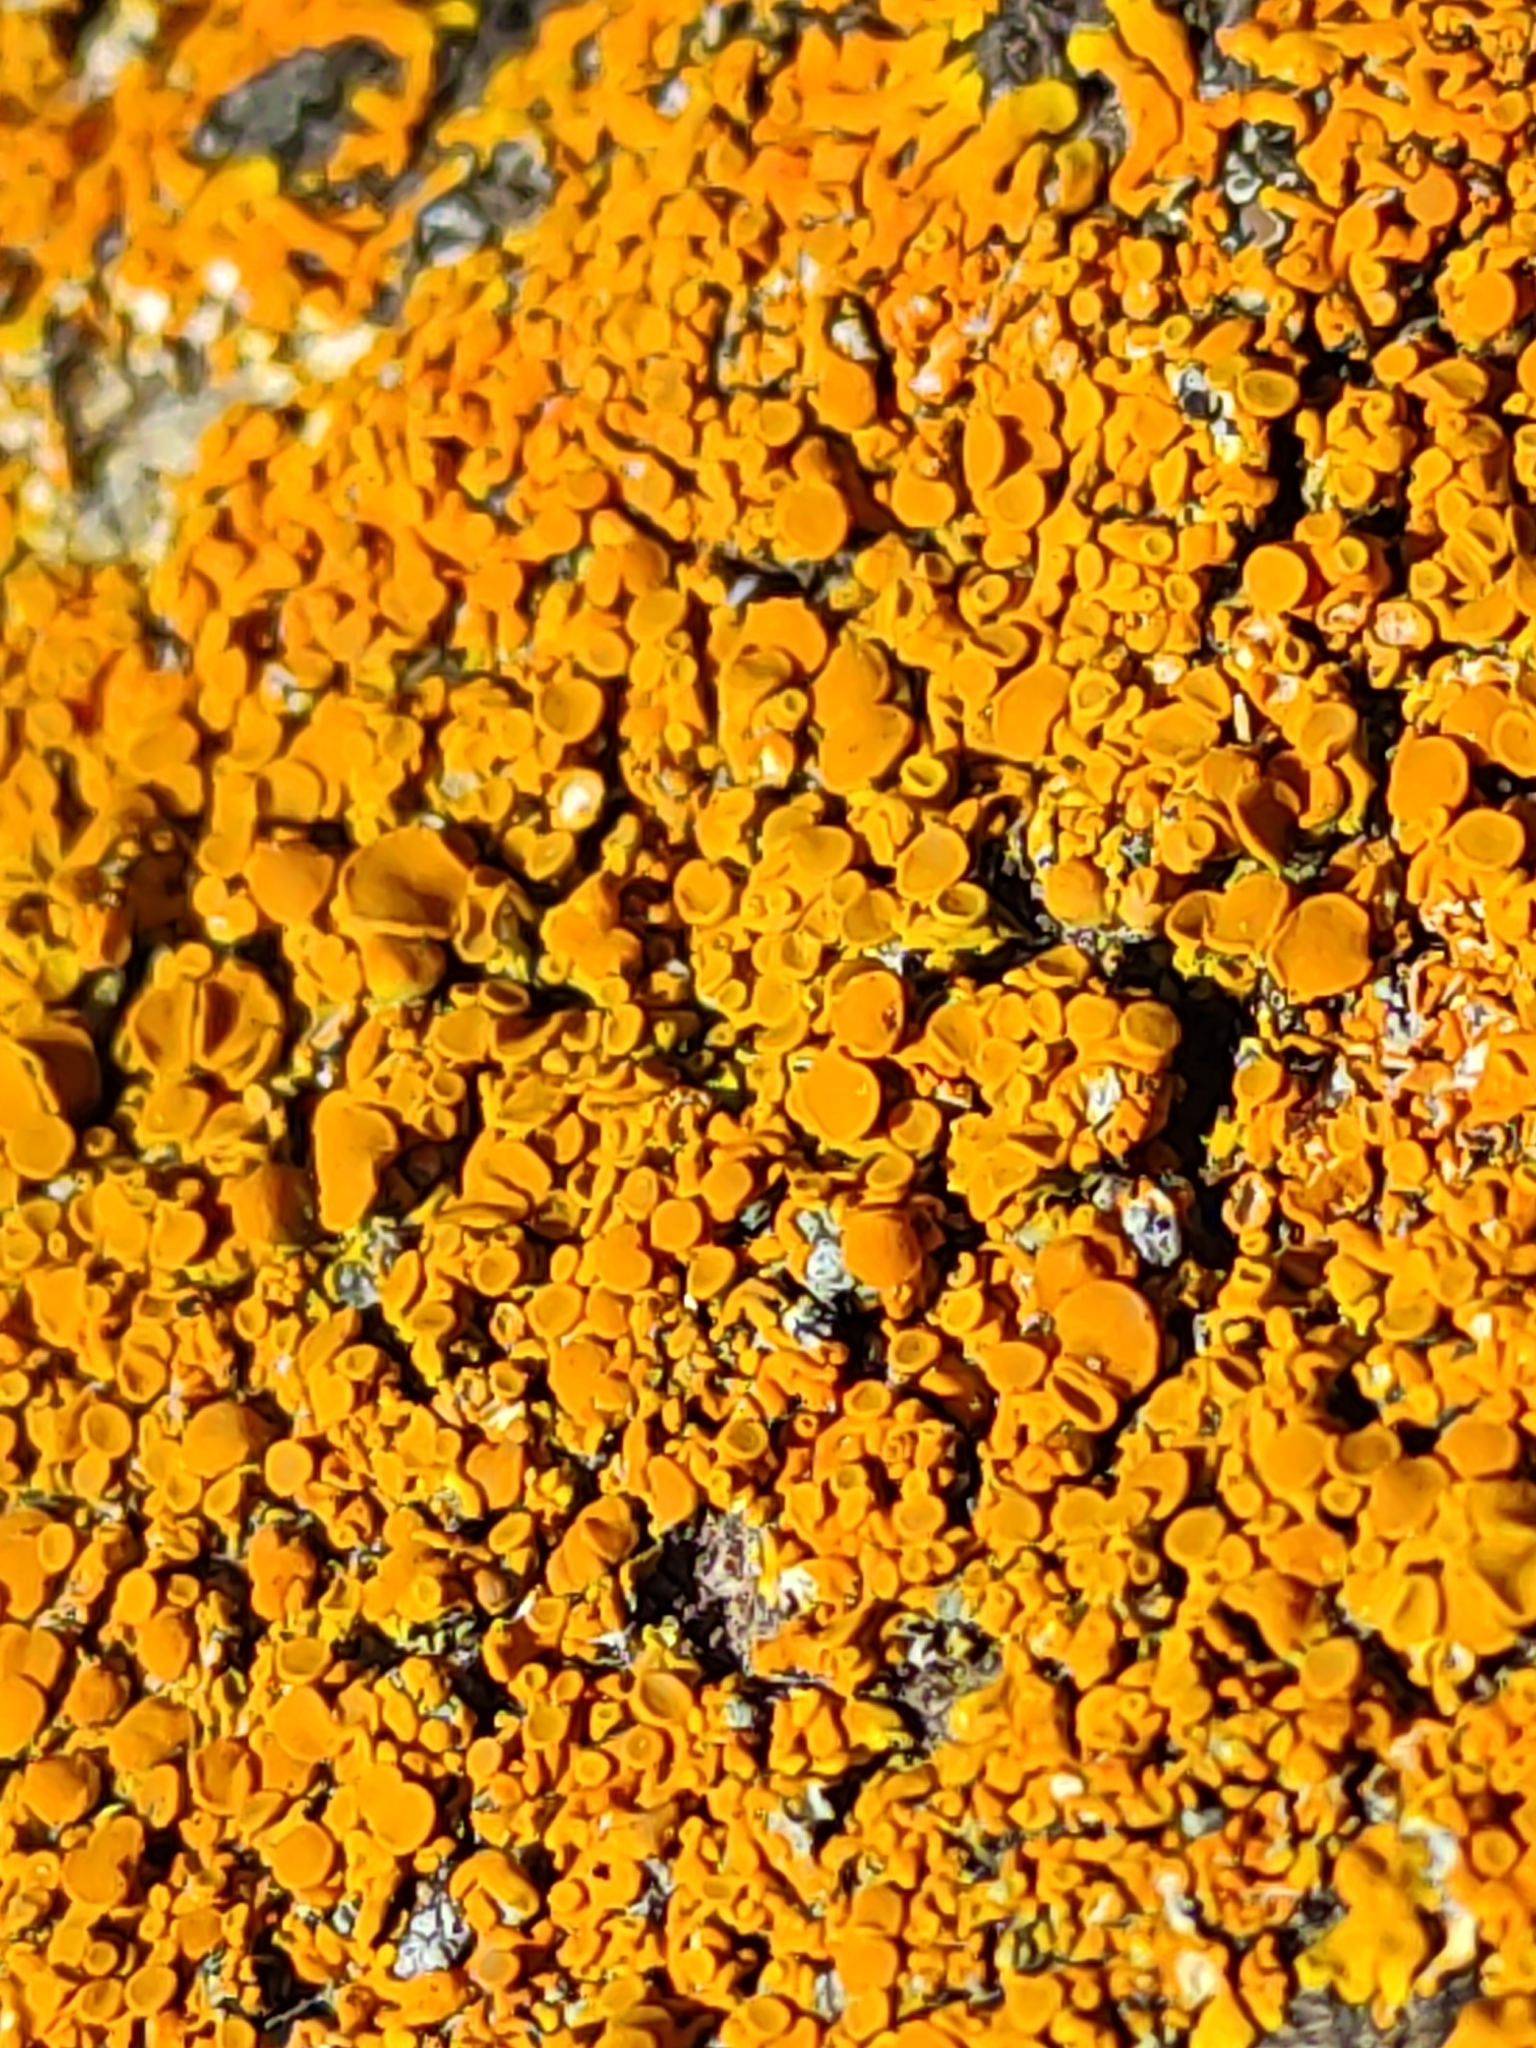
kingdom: Fungi
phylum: Ascomycota
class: Lecanoromycetes
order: Teloschistales
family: Teloschistaceae
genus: Xanthoria
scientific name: Xanthoria parietina
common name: Common orange lichen
